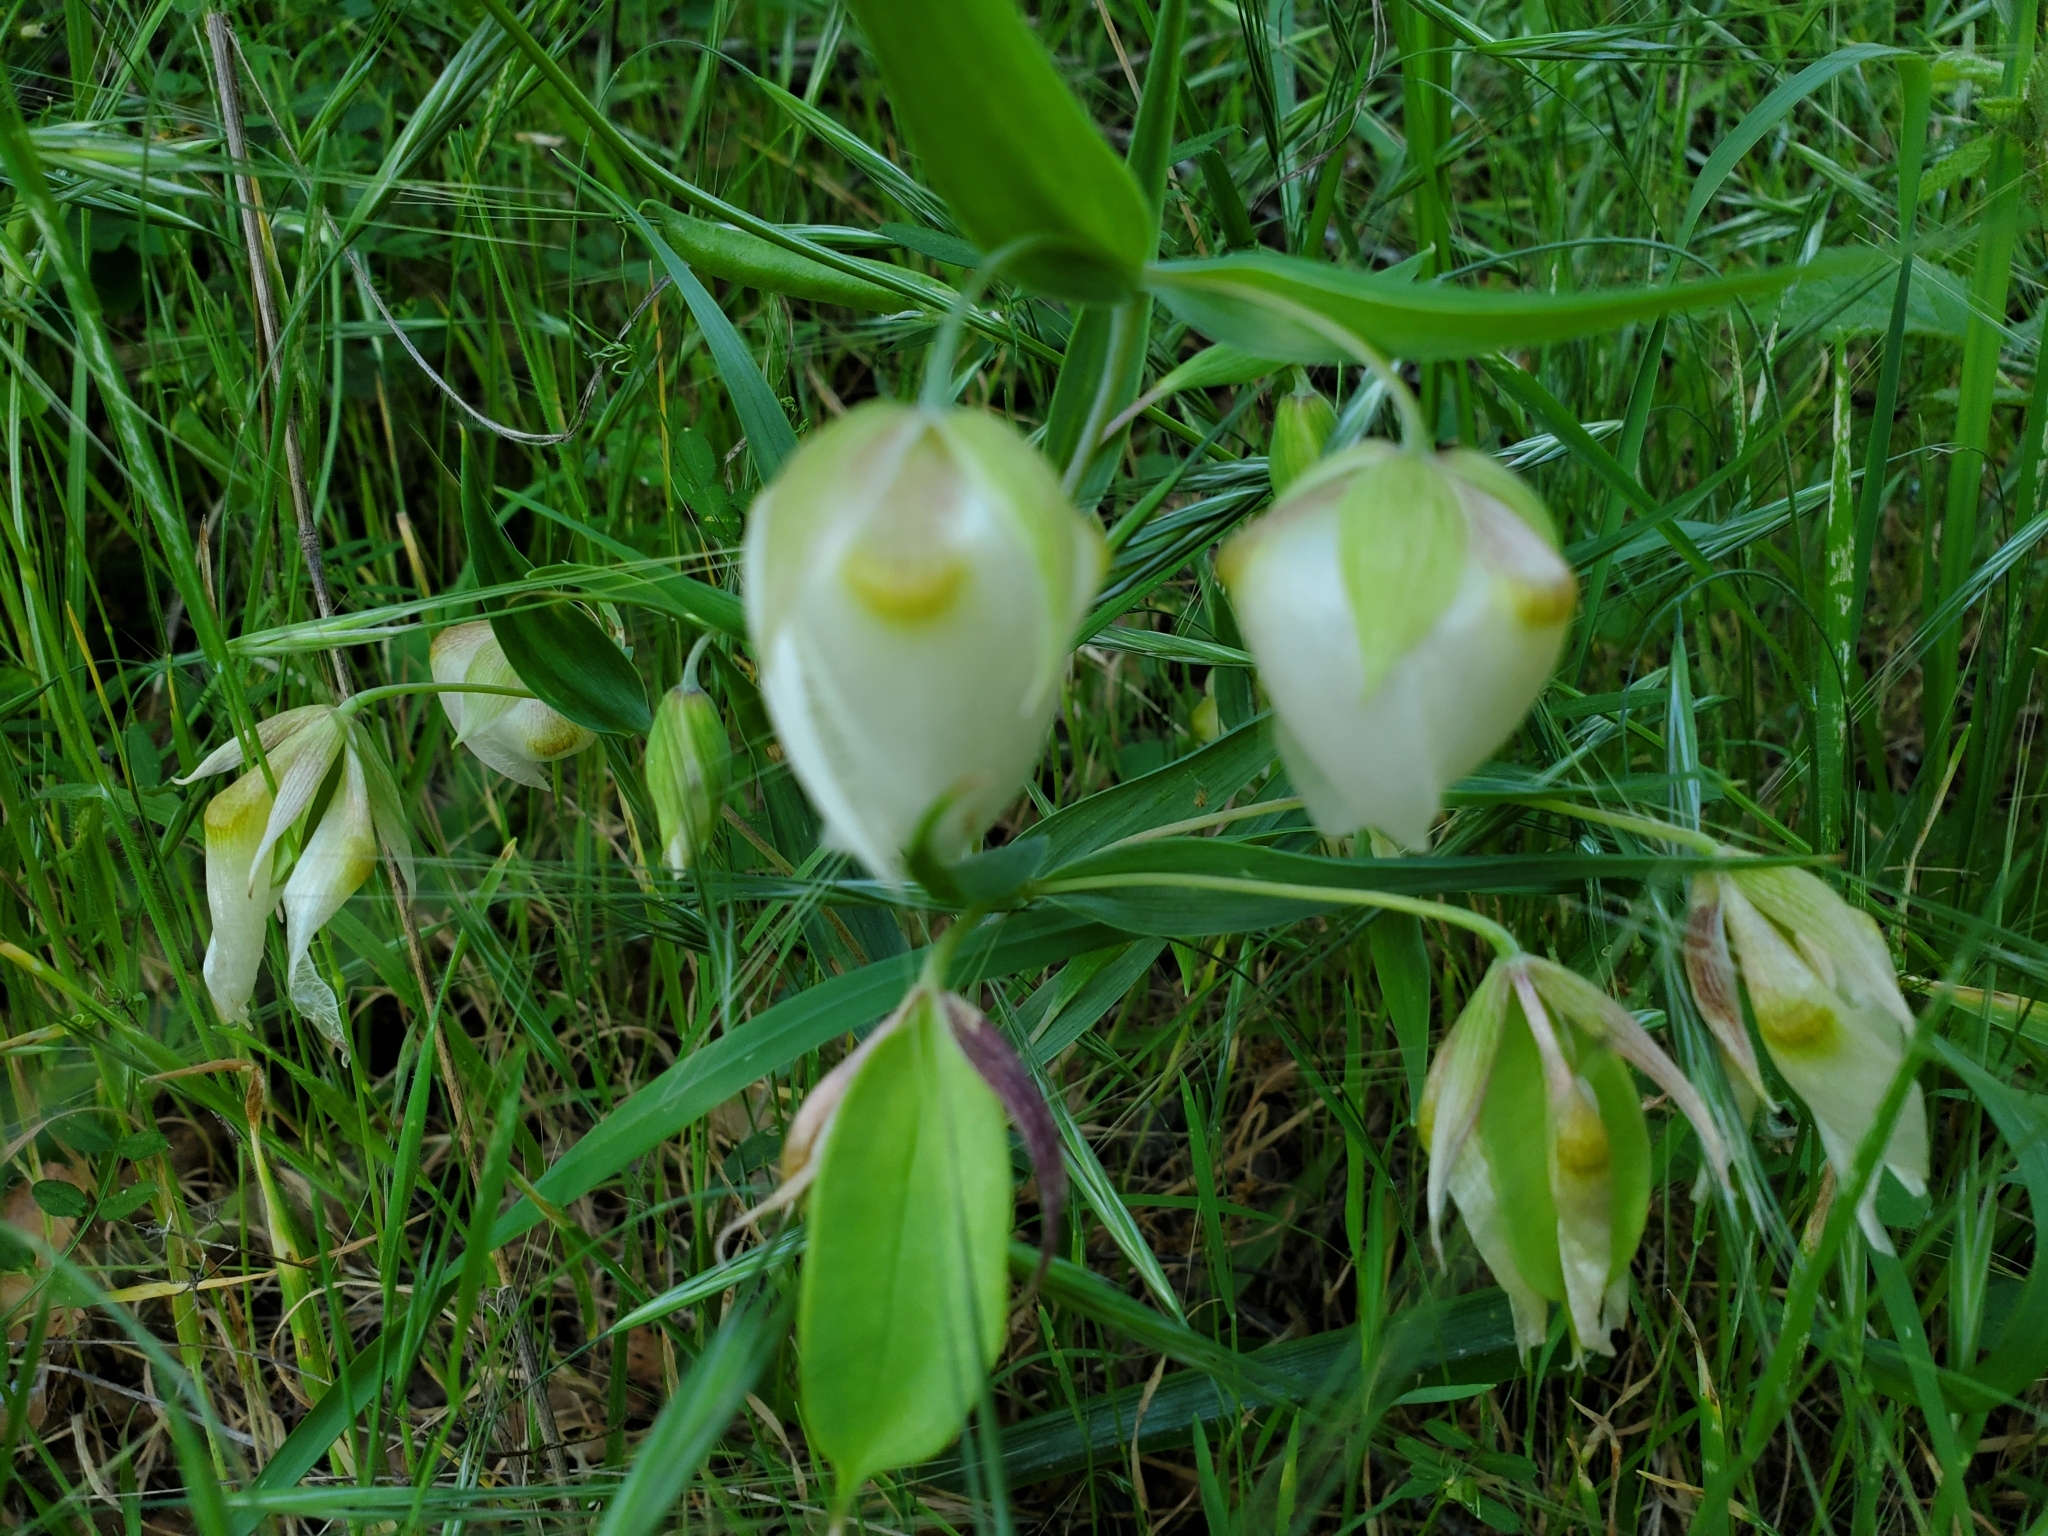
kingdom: Plantae
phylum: Tracheophyta
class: Liliopsida
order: Liliales
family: Liliaceae
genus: Calochortus
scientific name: Calochortus albus
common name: Fairy-lantern
